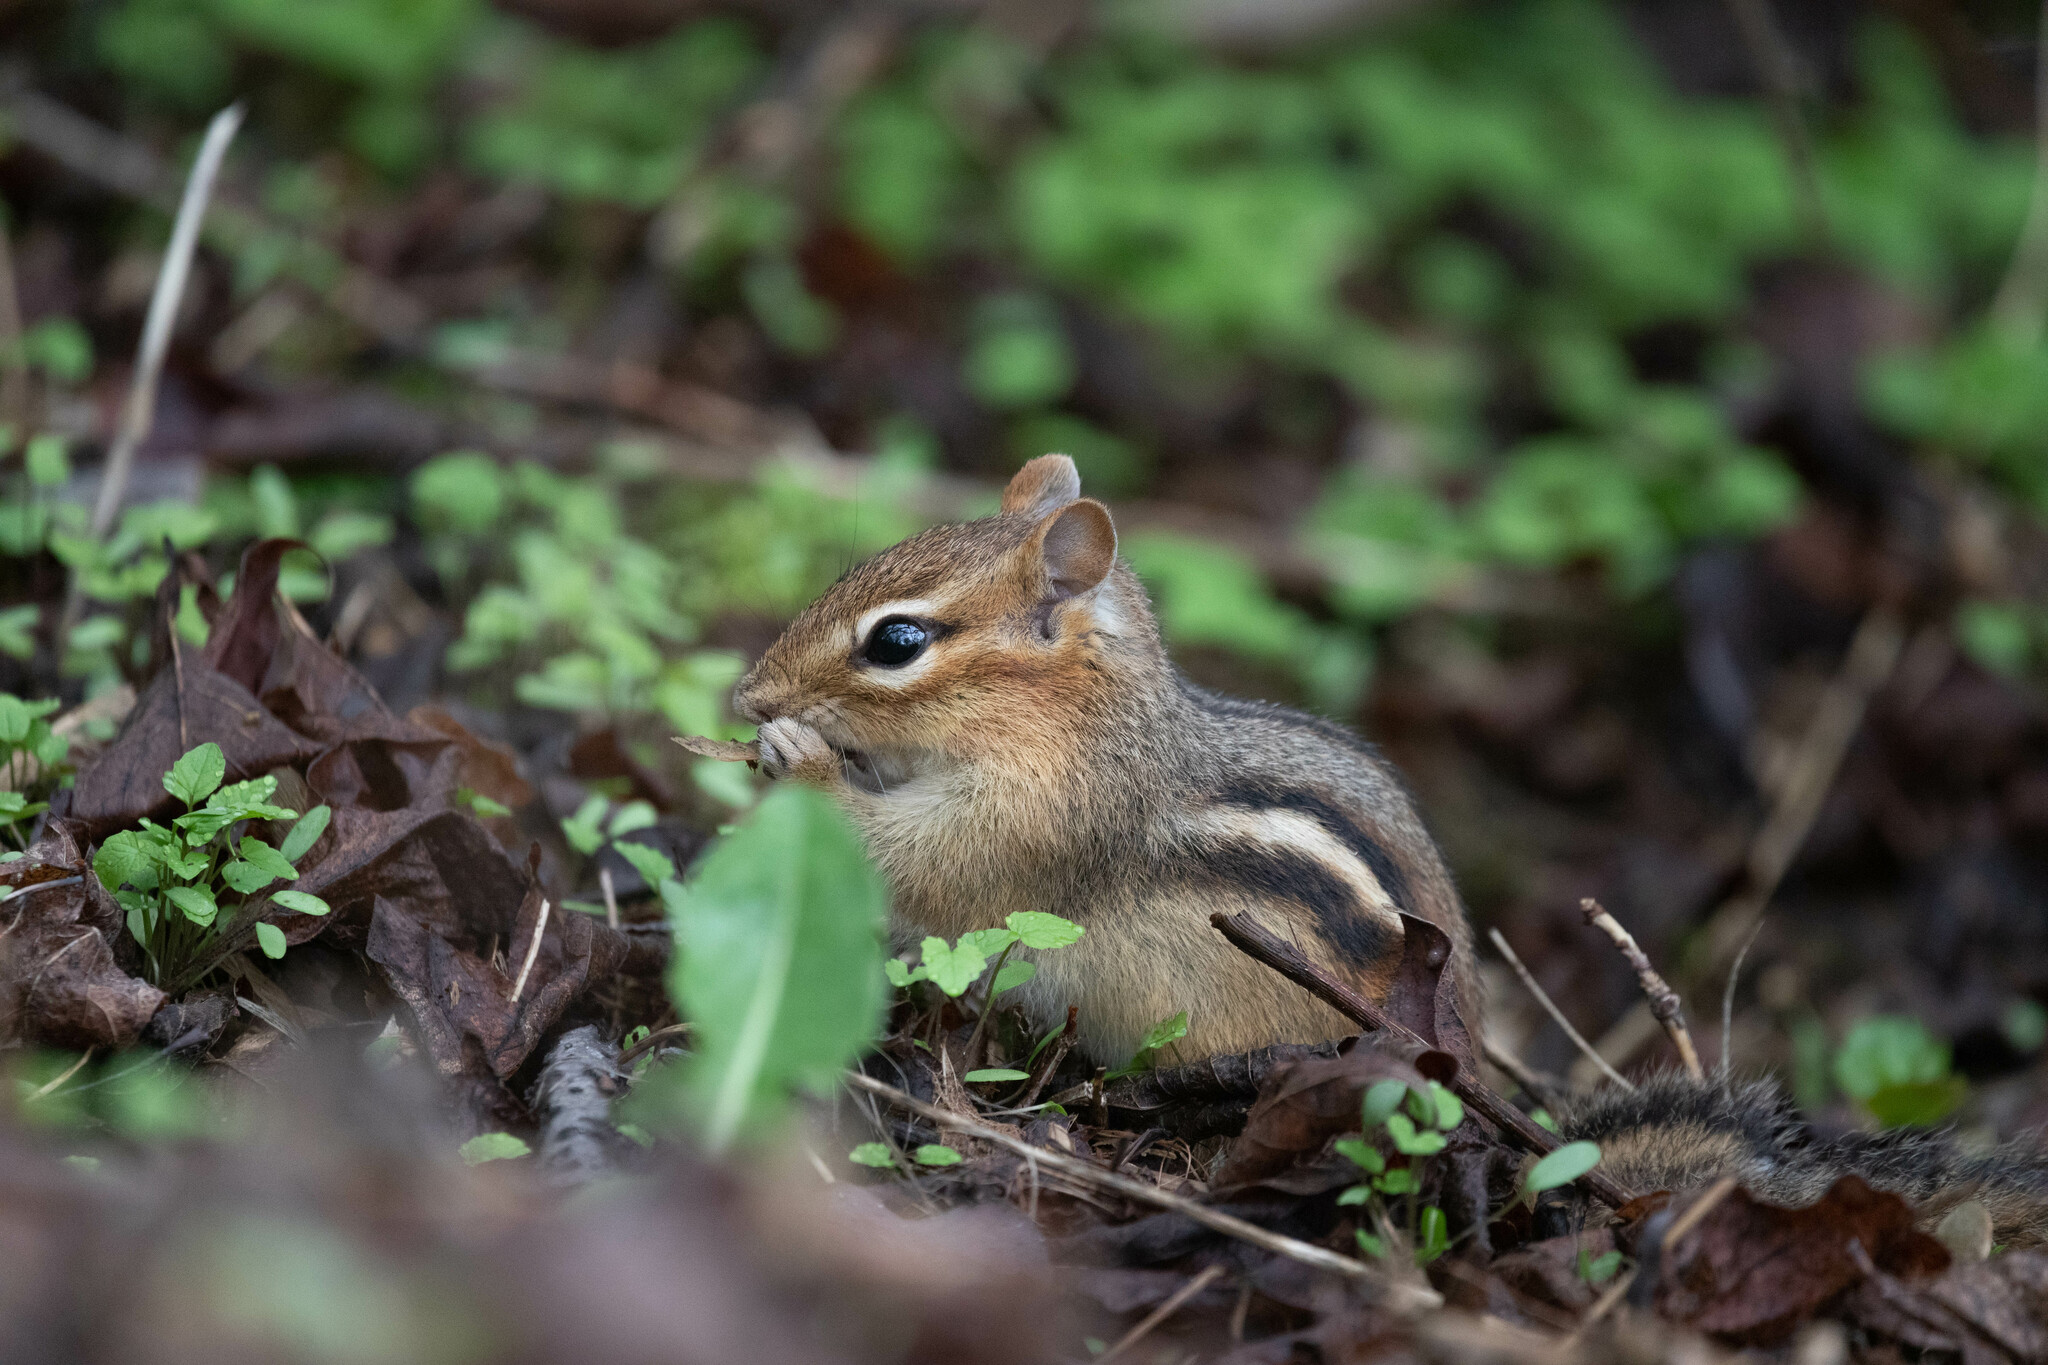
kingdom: Animalia
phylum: Chordata
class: Mammalia
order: Rodentia
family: Sciuridae
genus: Tamias
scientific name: Tamias striatus
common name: Eastern chipmunk
